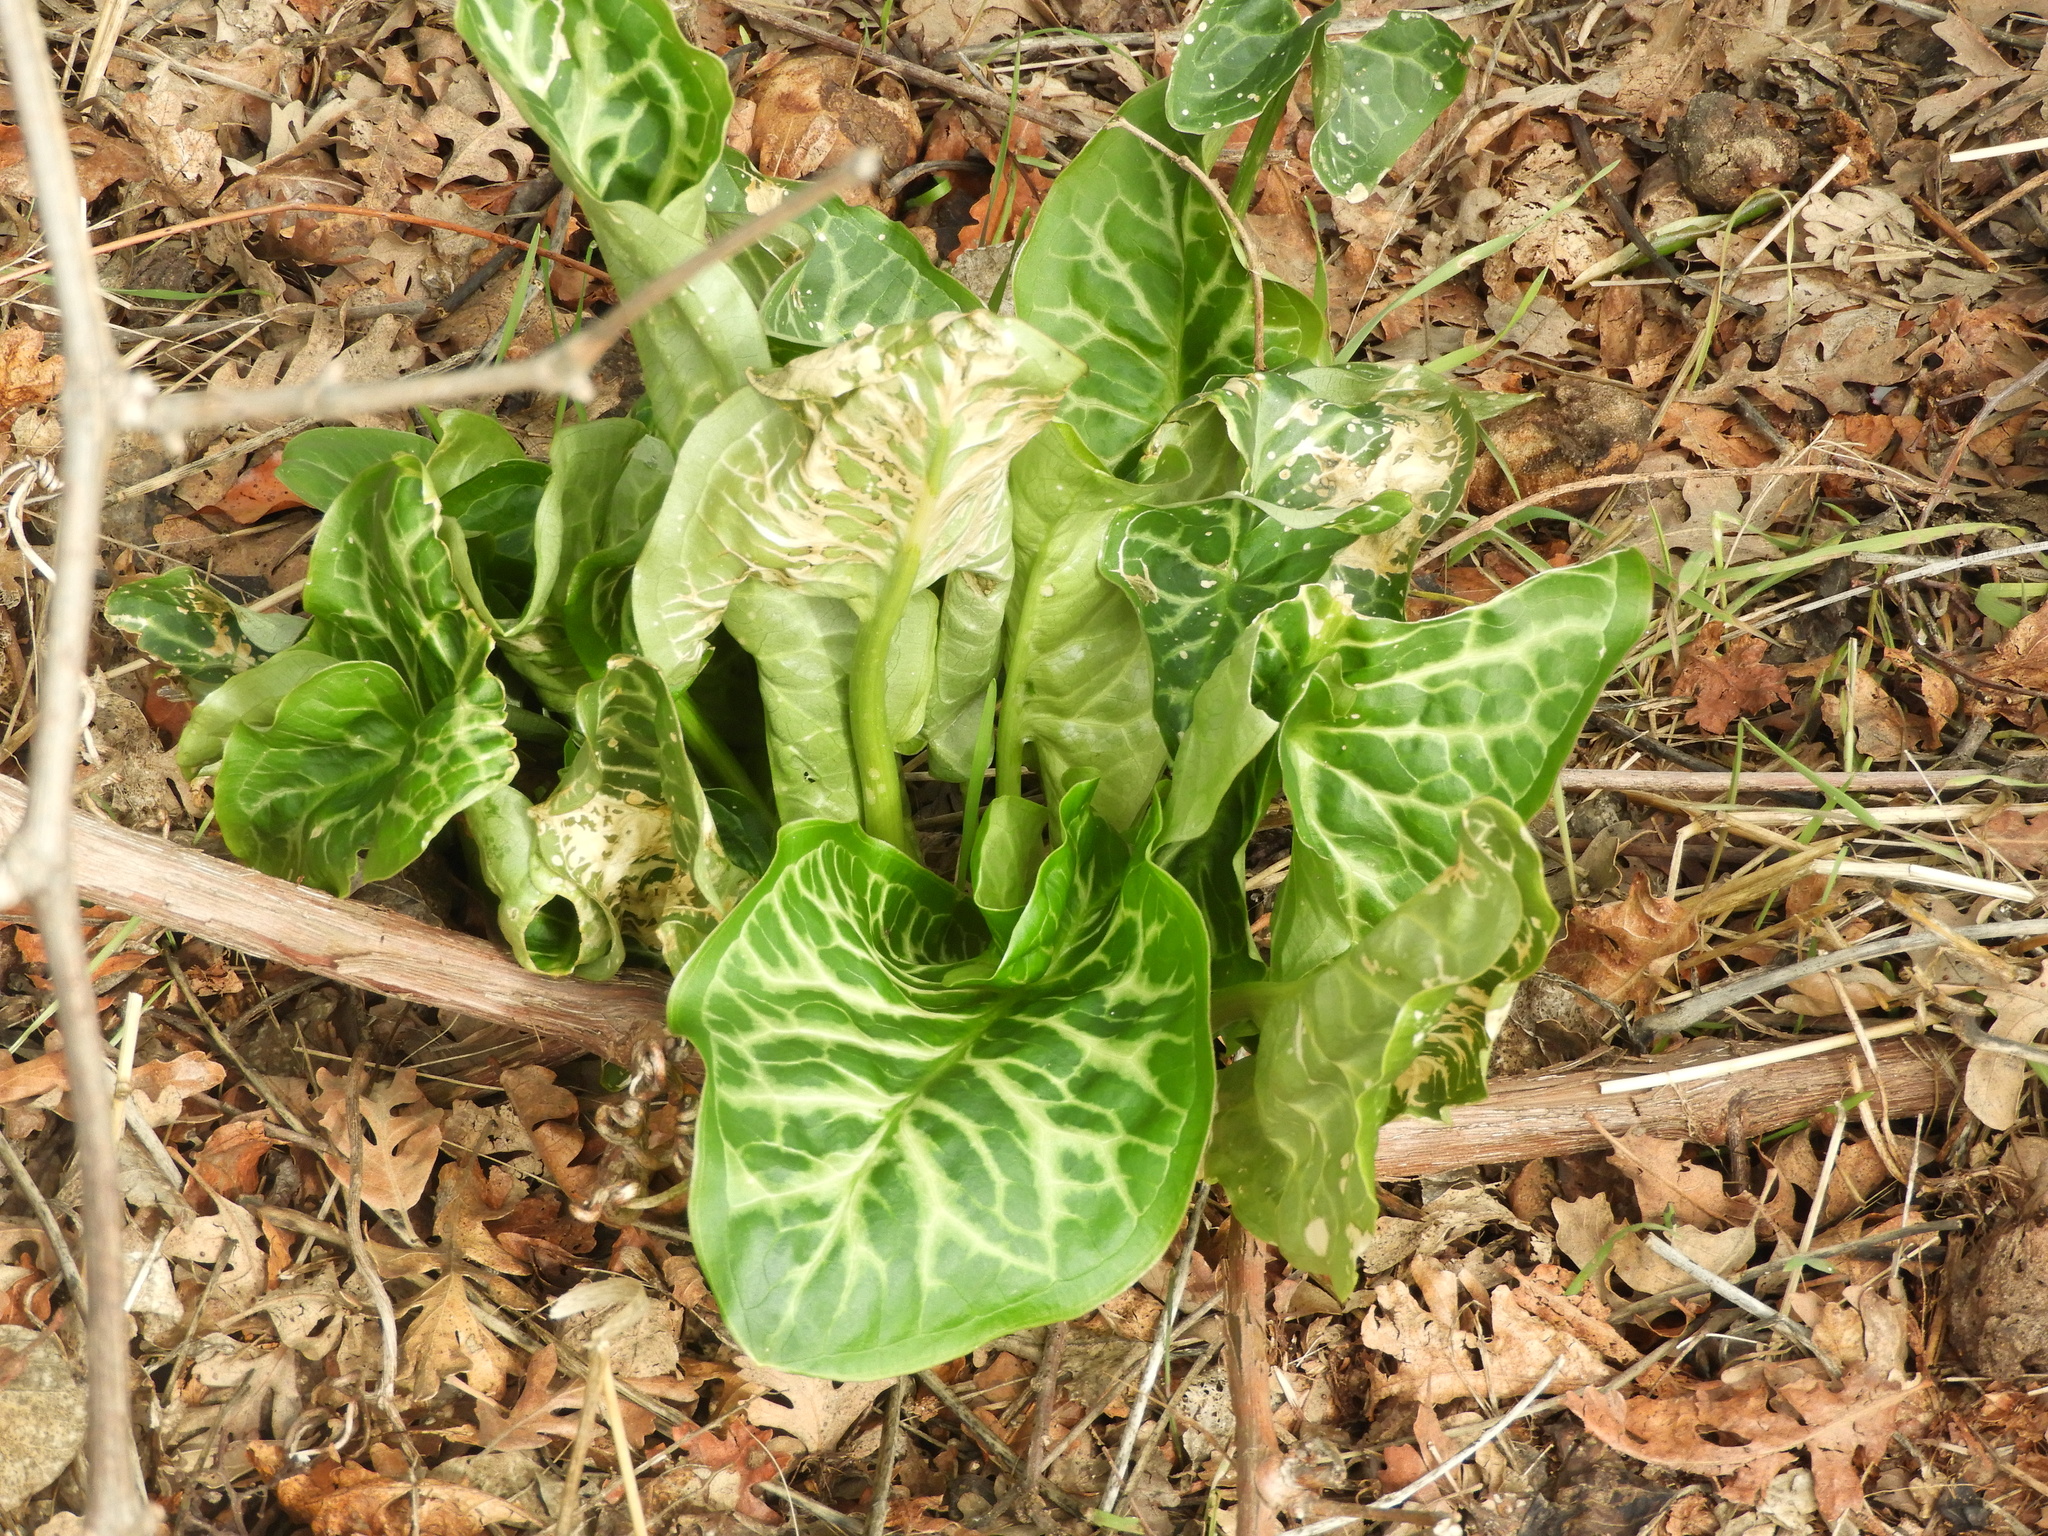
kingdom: Plantae
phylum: Tracheophyta
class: Liliopsida
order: Alismatales
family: Araceae
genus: Arum
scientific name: Arum italicum
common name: Italian lords-and-ladies
